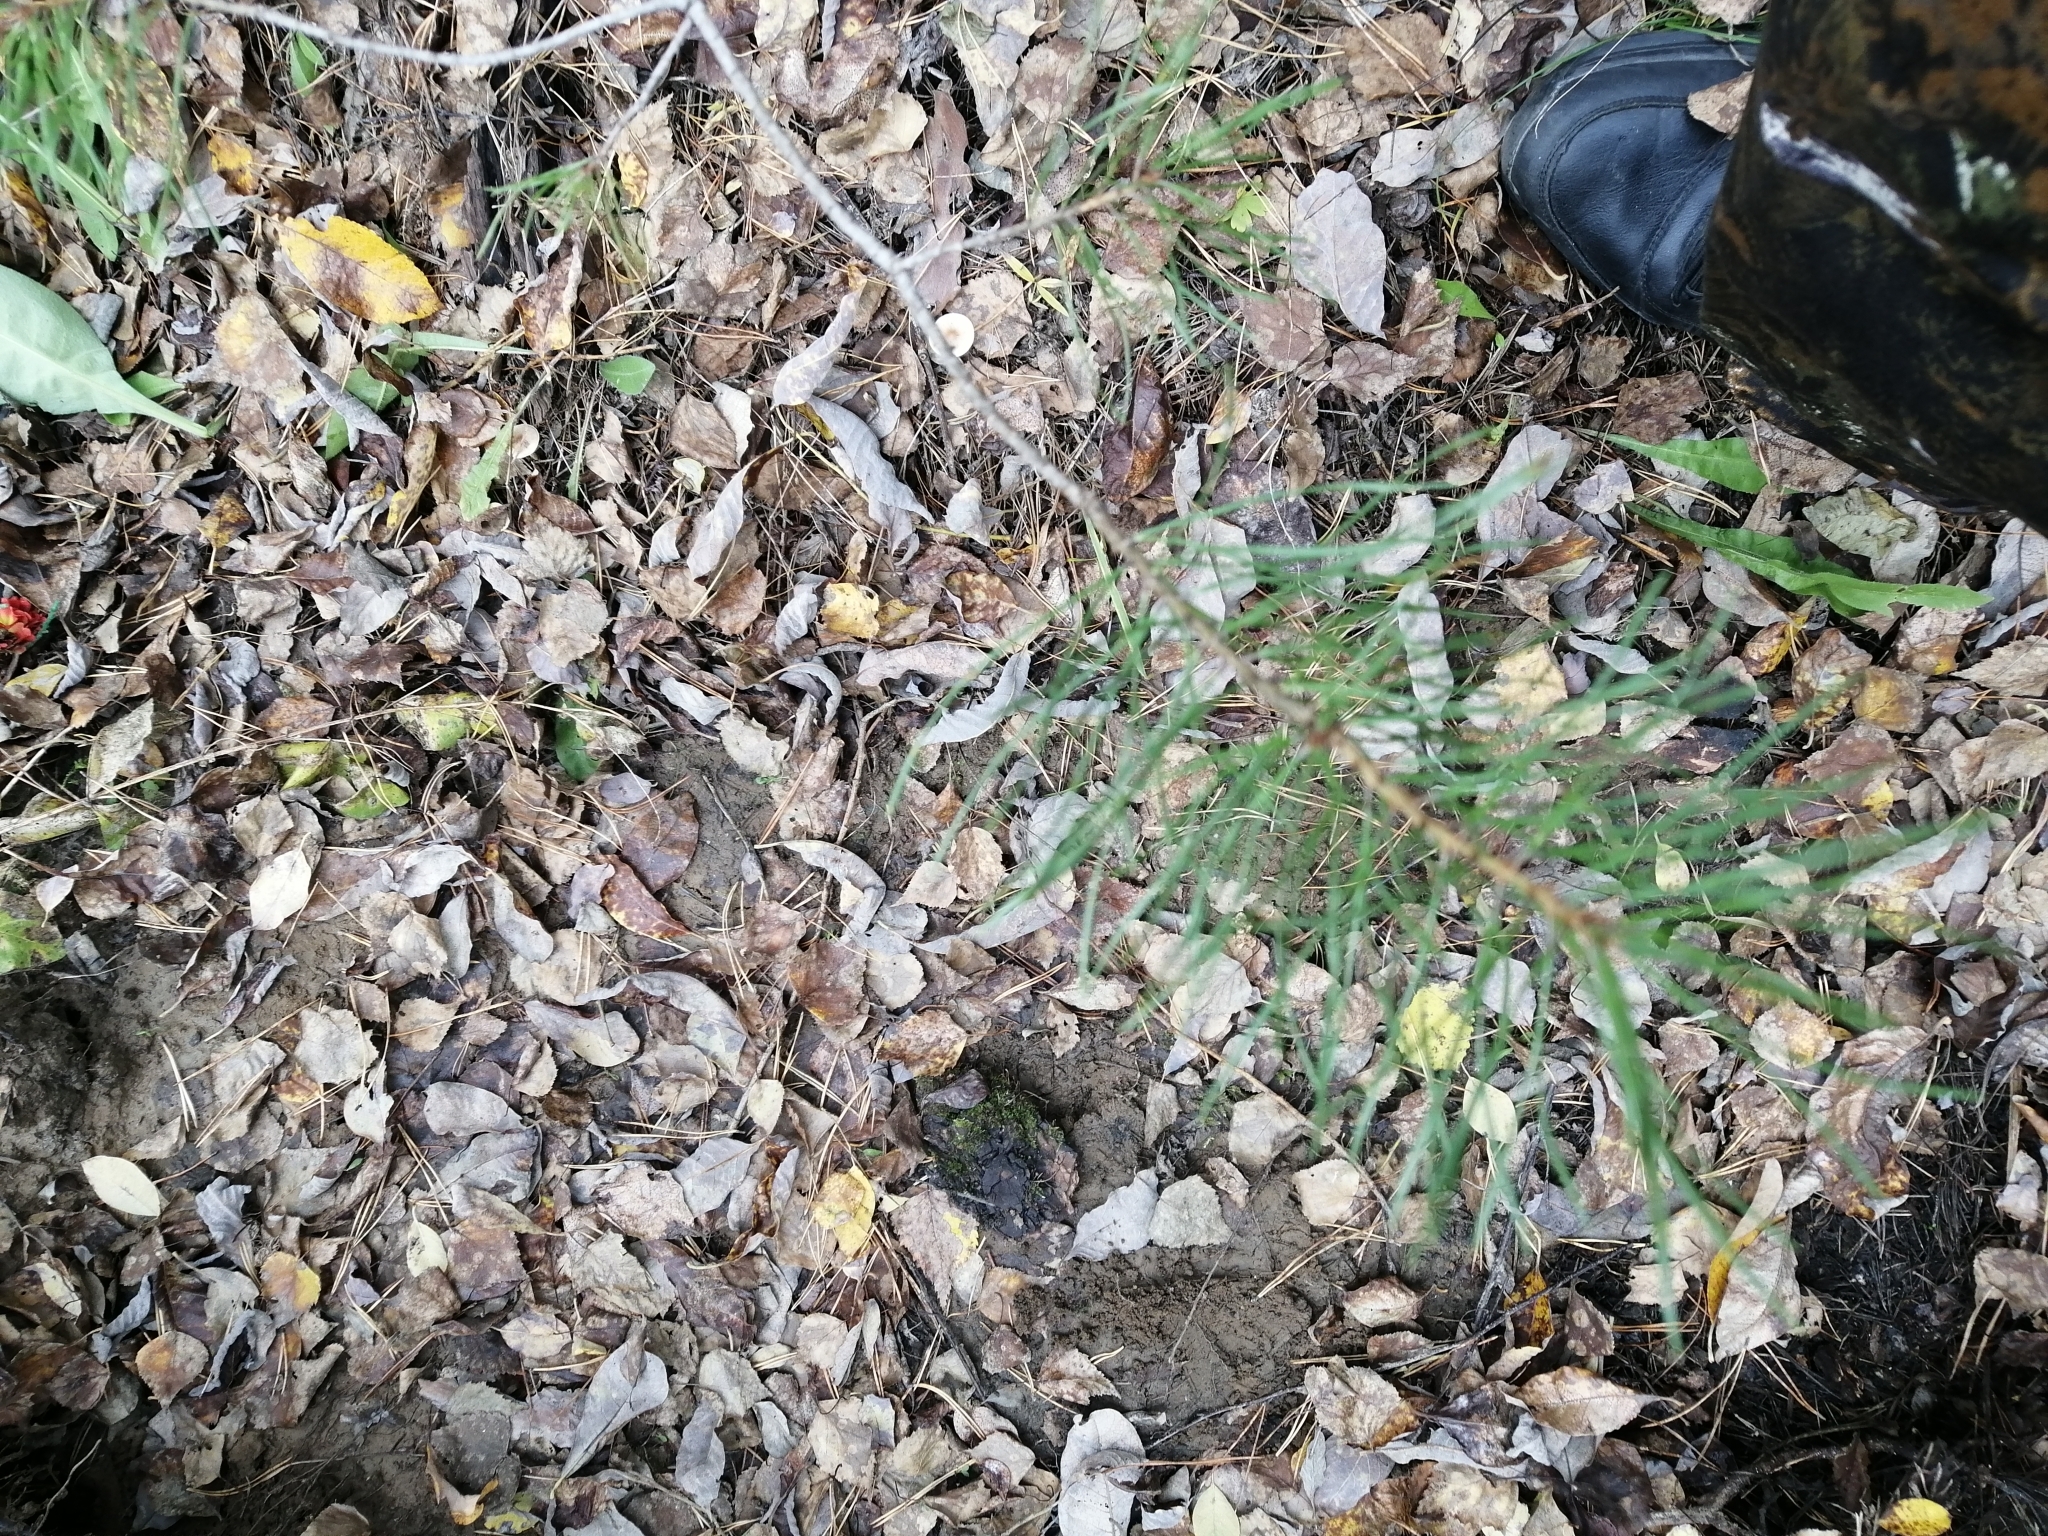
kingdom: Plantae
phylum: Tracheophyta
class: Pinopsida
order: Pinales
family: Pinaceae
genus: Pinus
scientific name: Pinus sylvestris
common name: Scots pine
